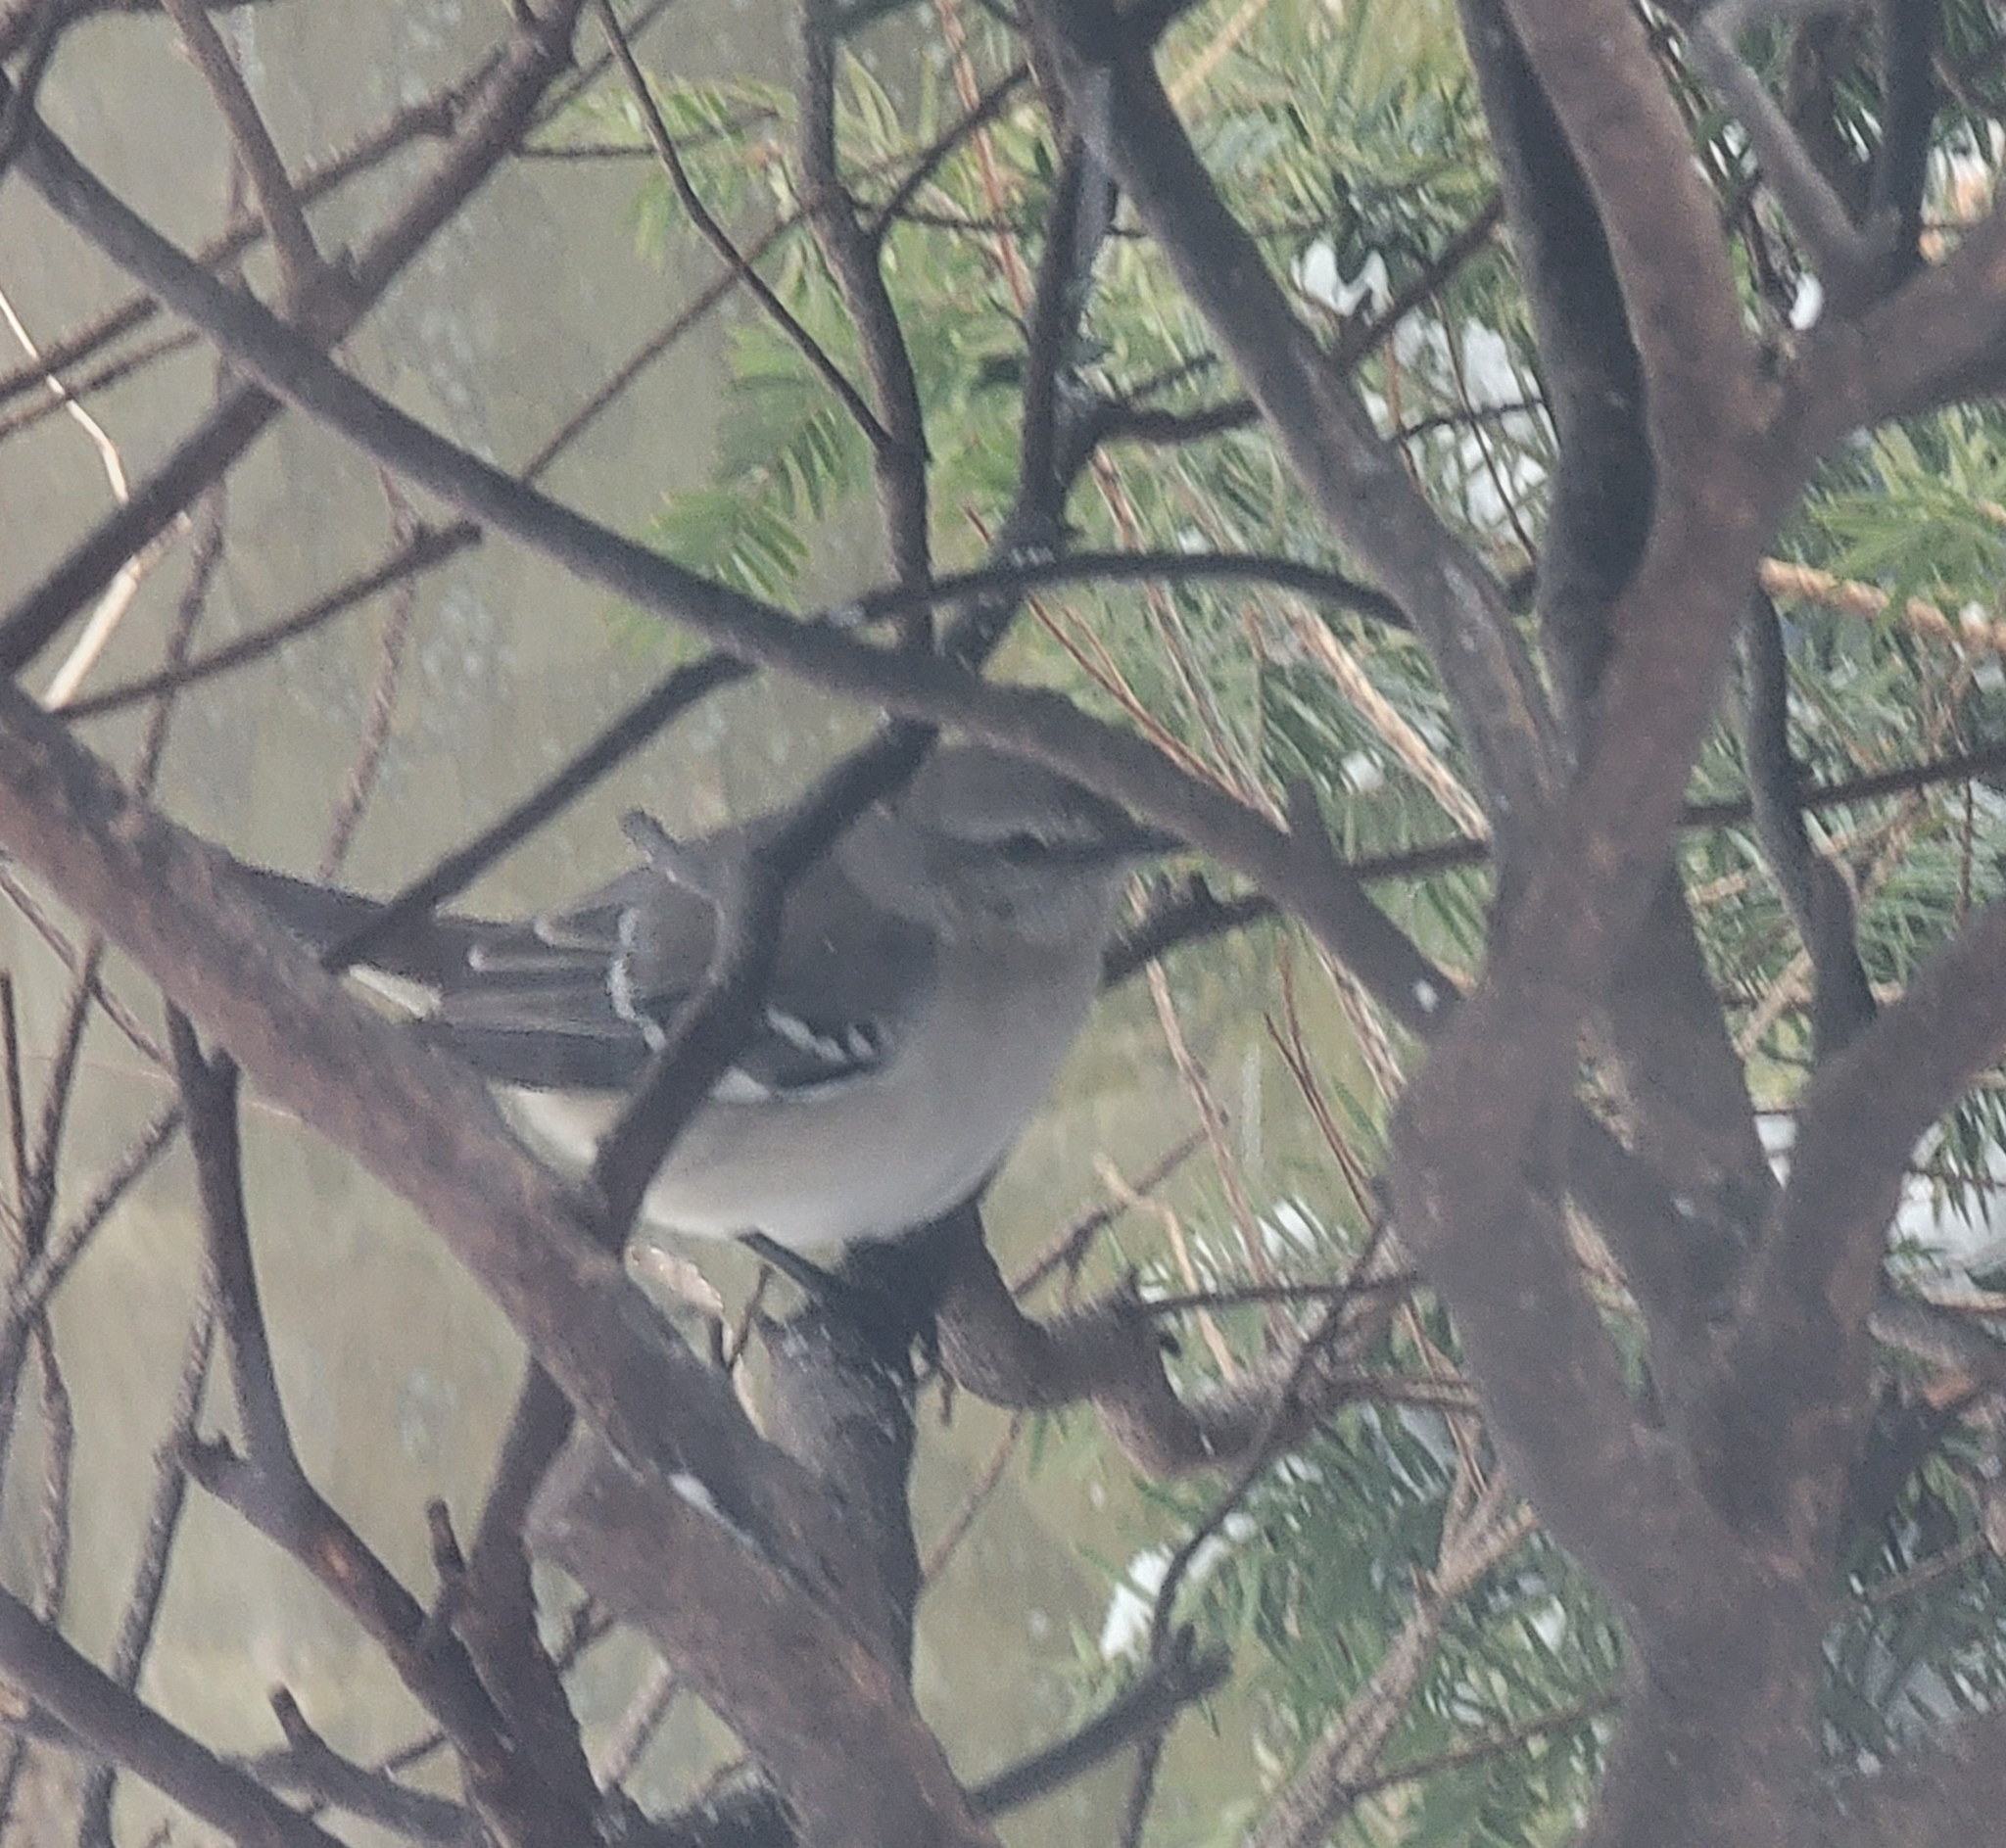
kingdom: Animalia
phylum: Chordata
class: Aves
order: Passeriformes
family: Mimidae
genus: Mimus
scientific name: Mimus polyglottos
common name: Northern mockingbird
